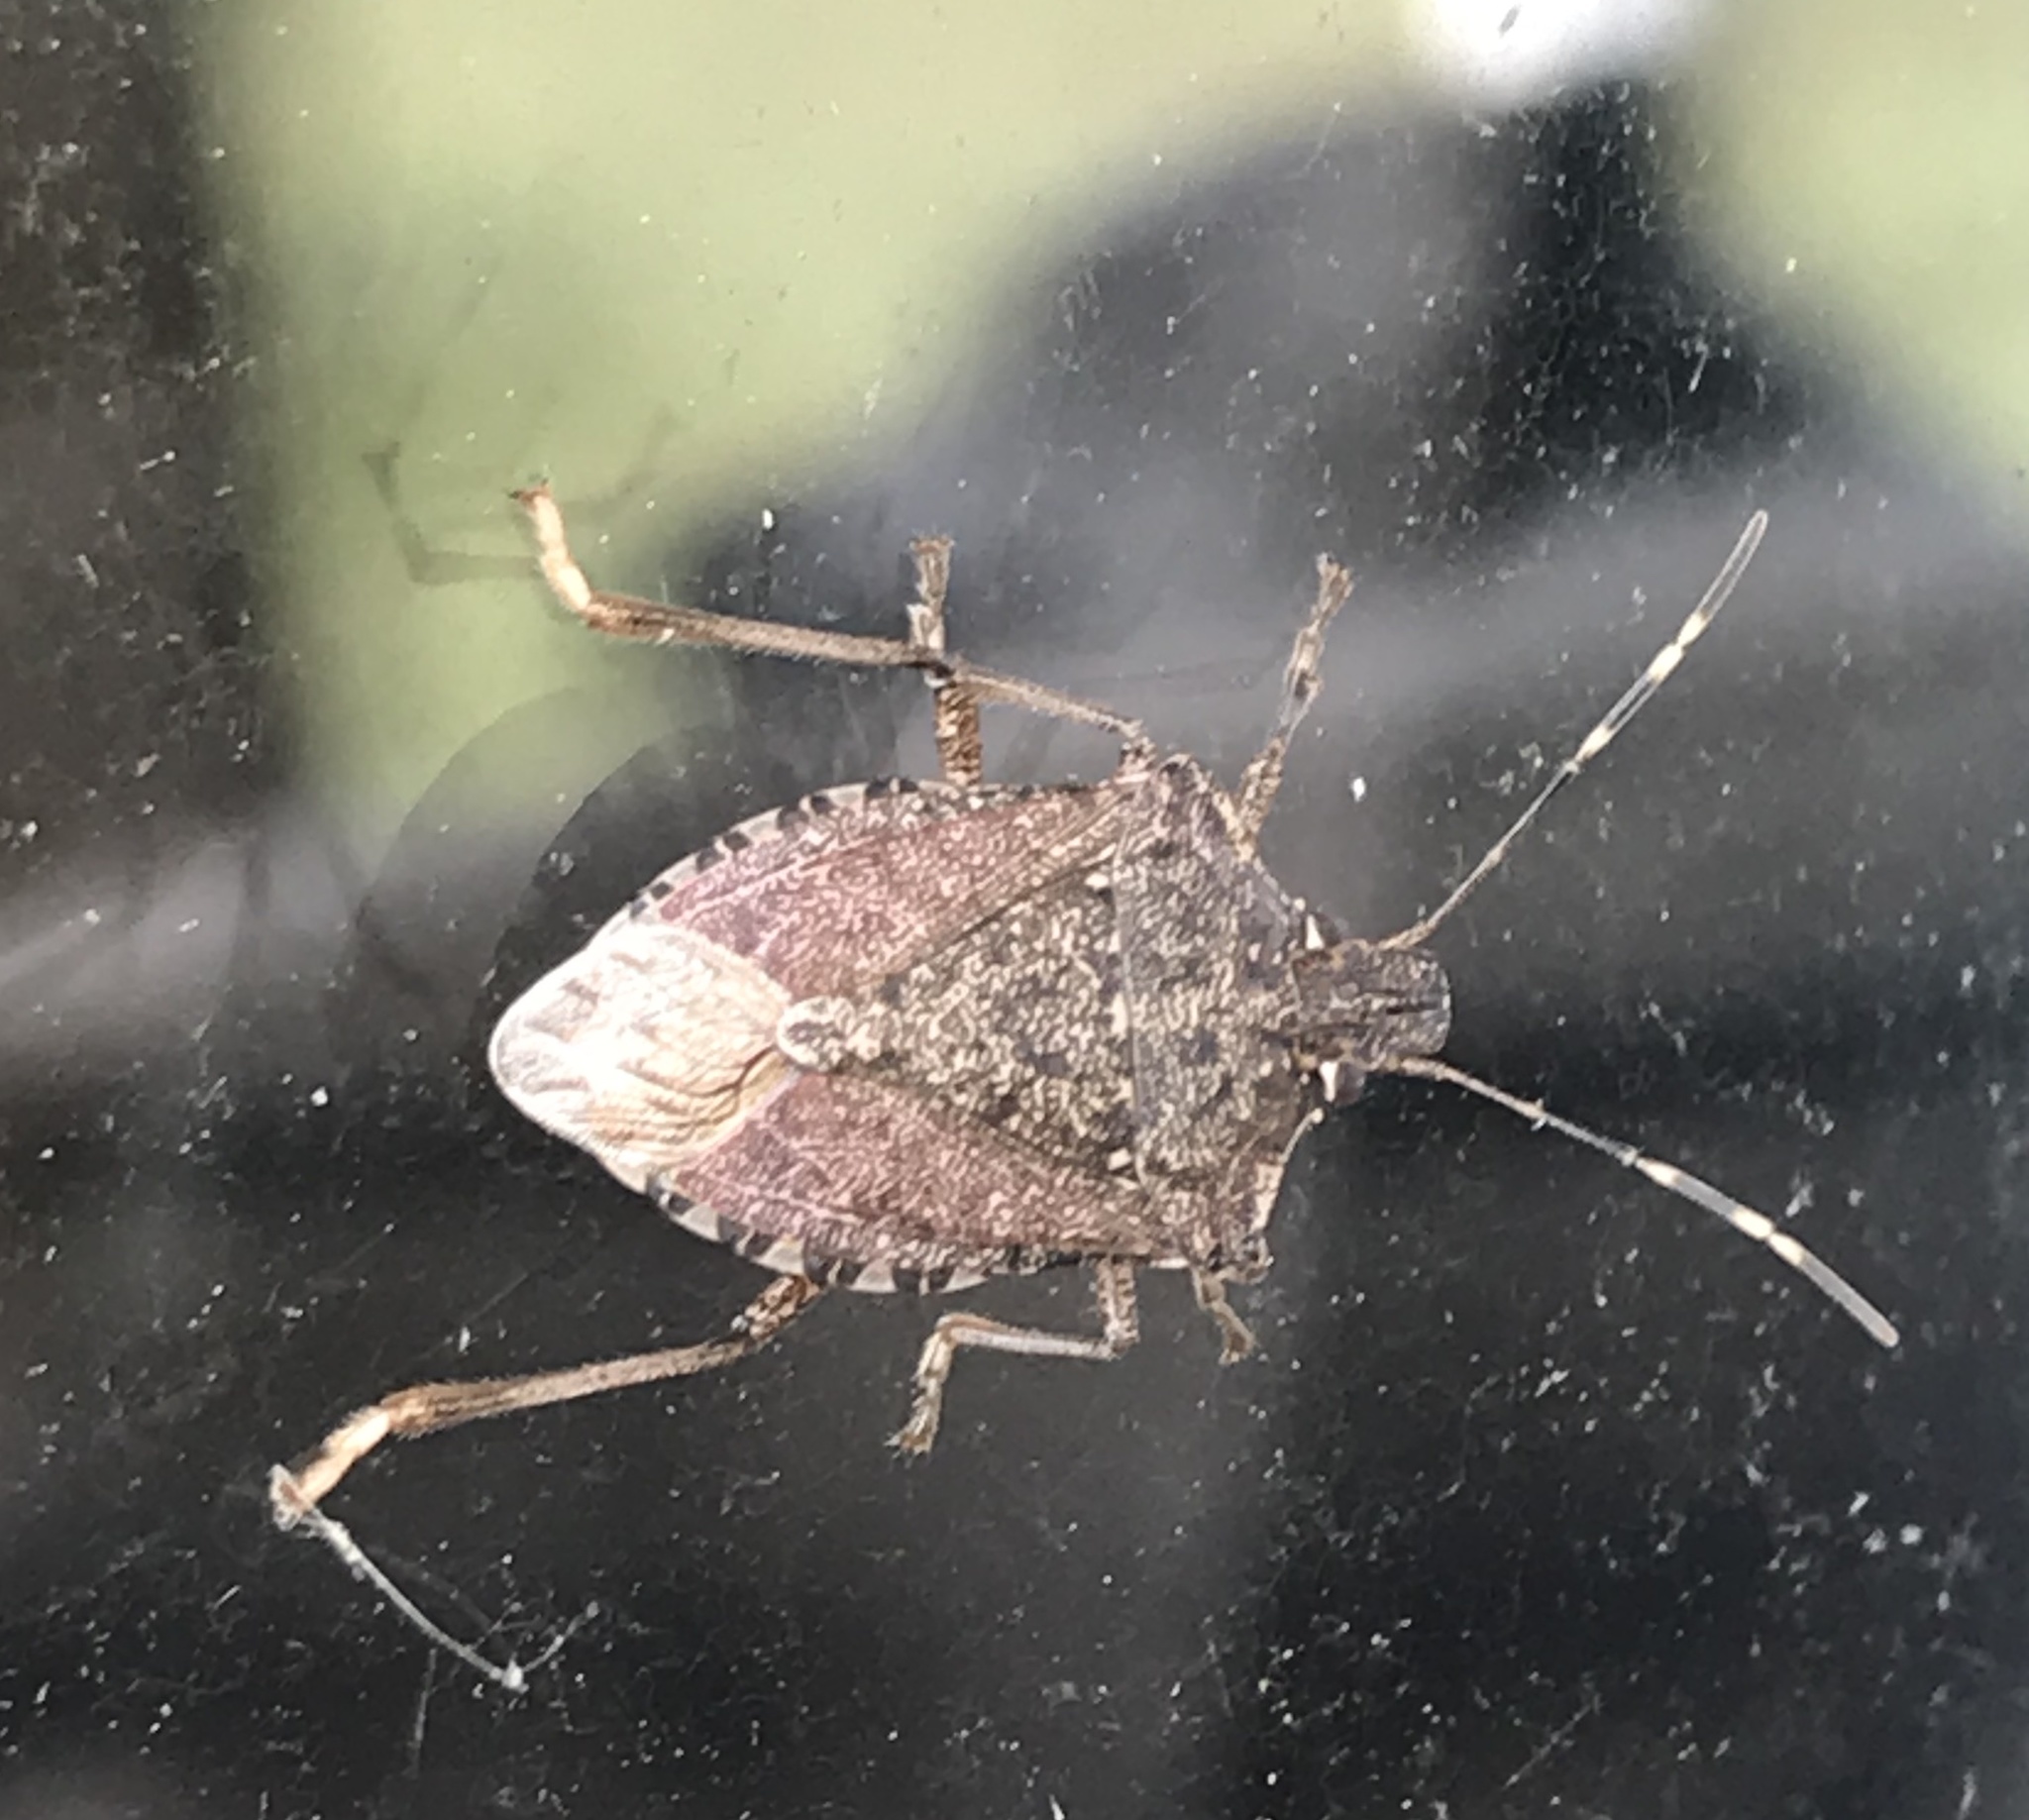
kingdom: Animalia
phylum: Arthropoda
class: Insecta
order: Hemiptera
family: Pentatomidae
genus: Halyomorpha
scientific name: Halyomorpha halys
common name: Brown marmorated stink bug
